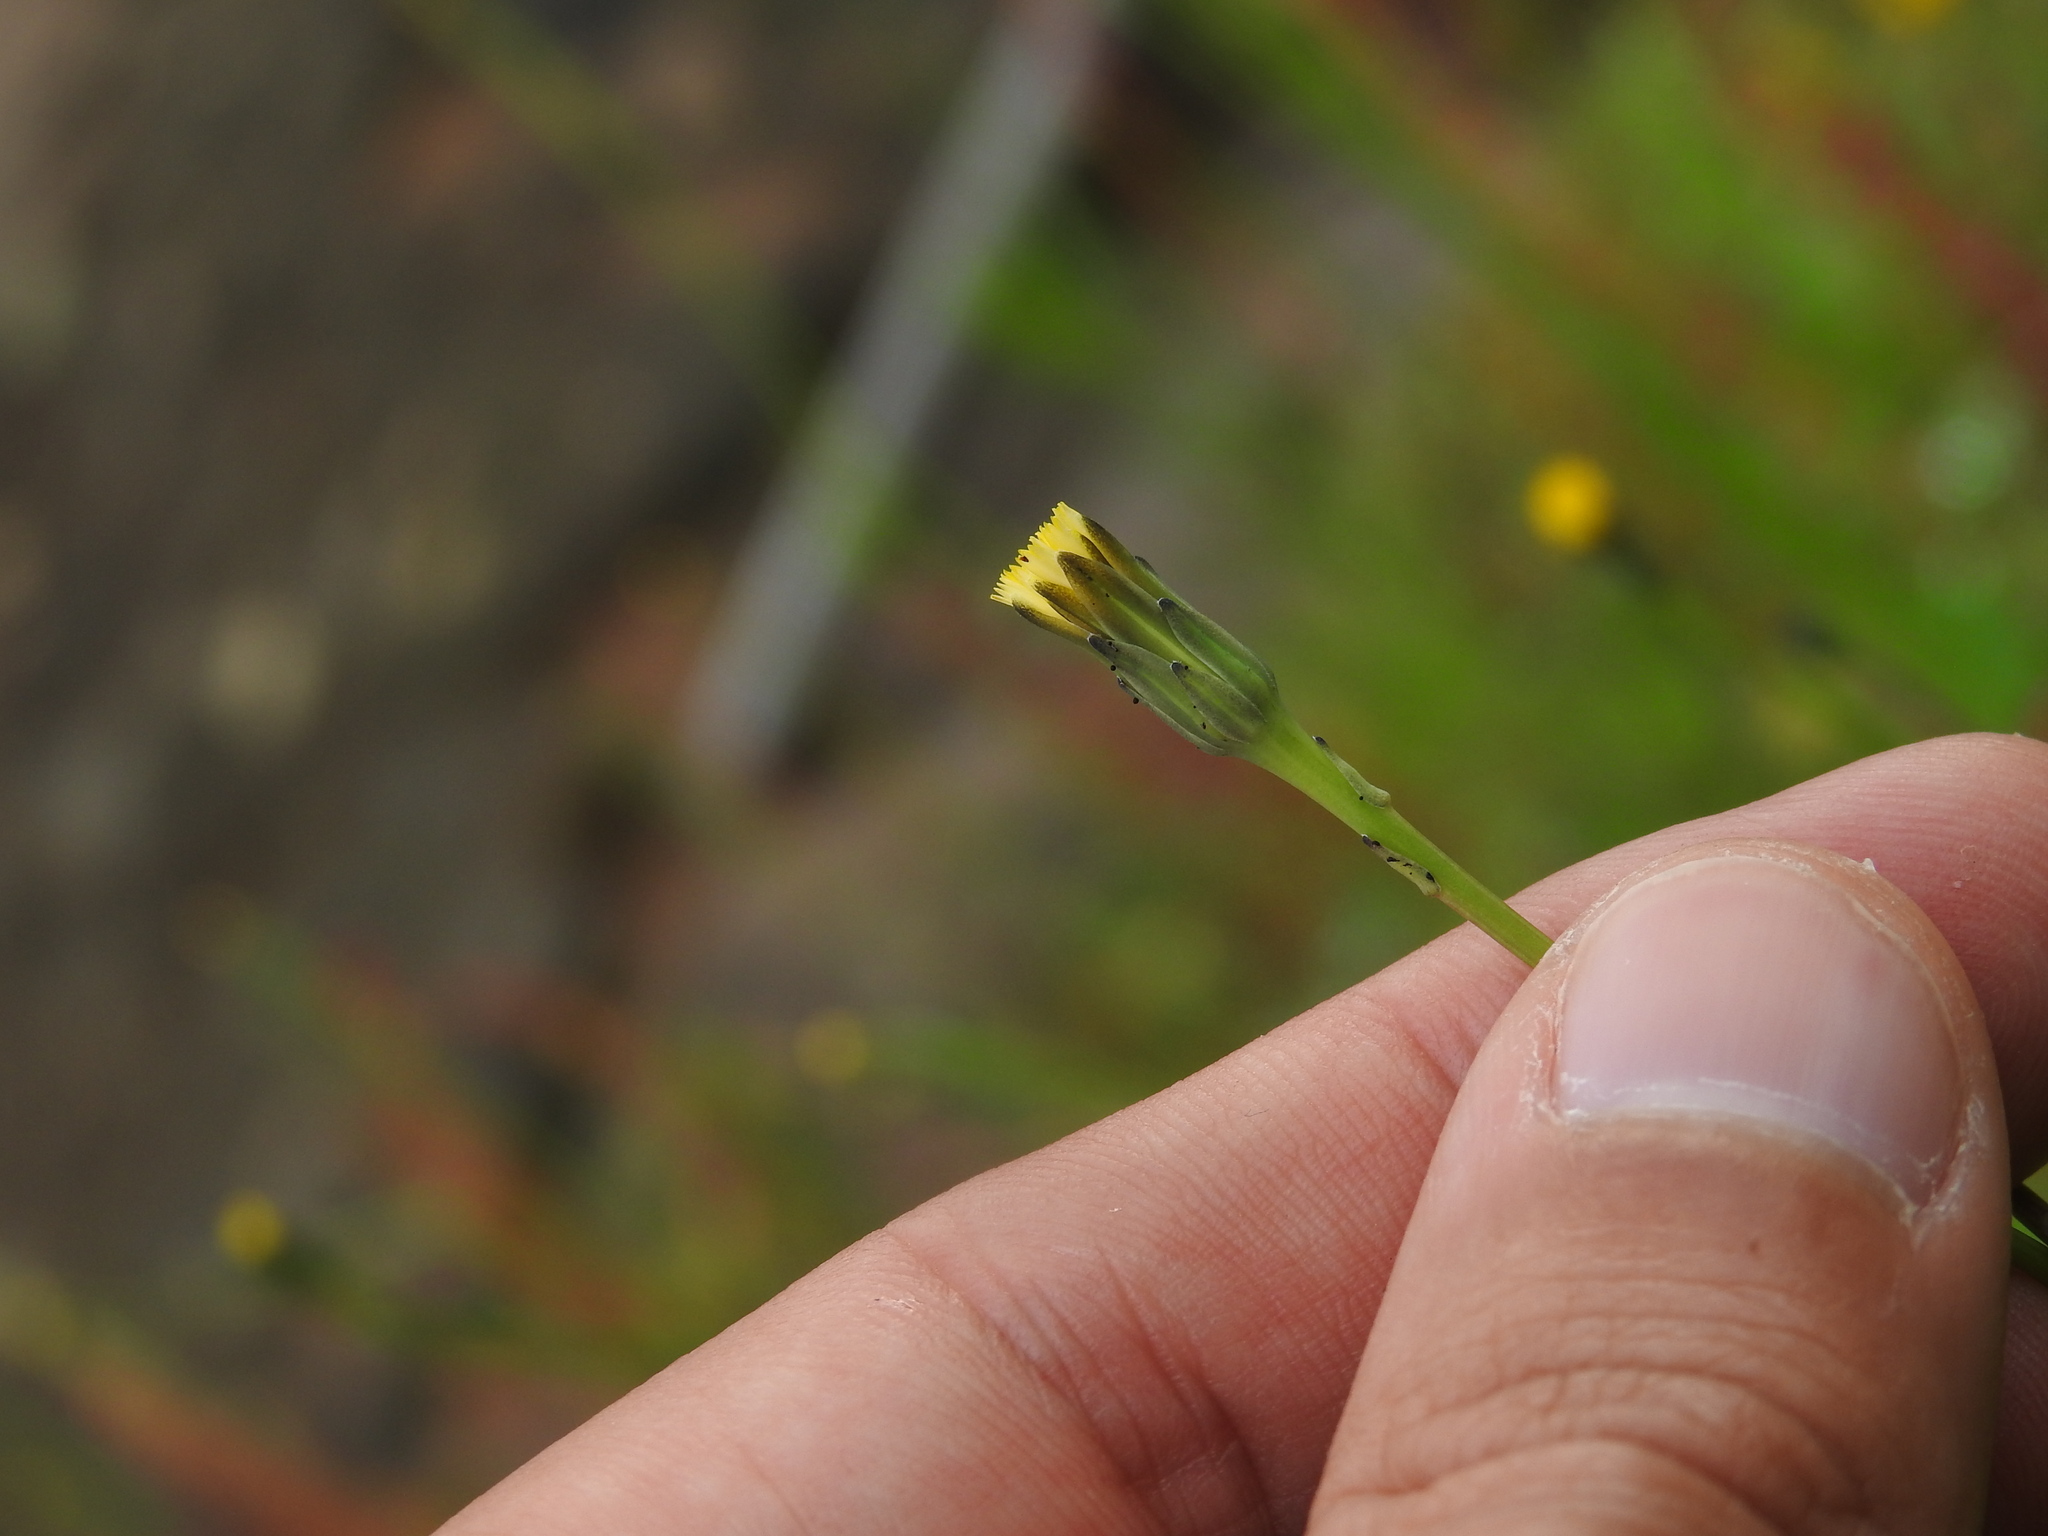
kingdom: Plantae
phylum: Tracheophyta
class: Magnoliopsida
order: Asterales
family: Asteraceae
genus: Hypochaeris
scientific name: Hypochaeris glabra
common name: Smooth catsear
